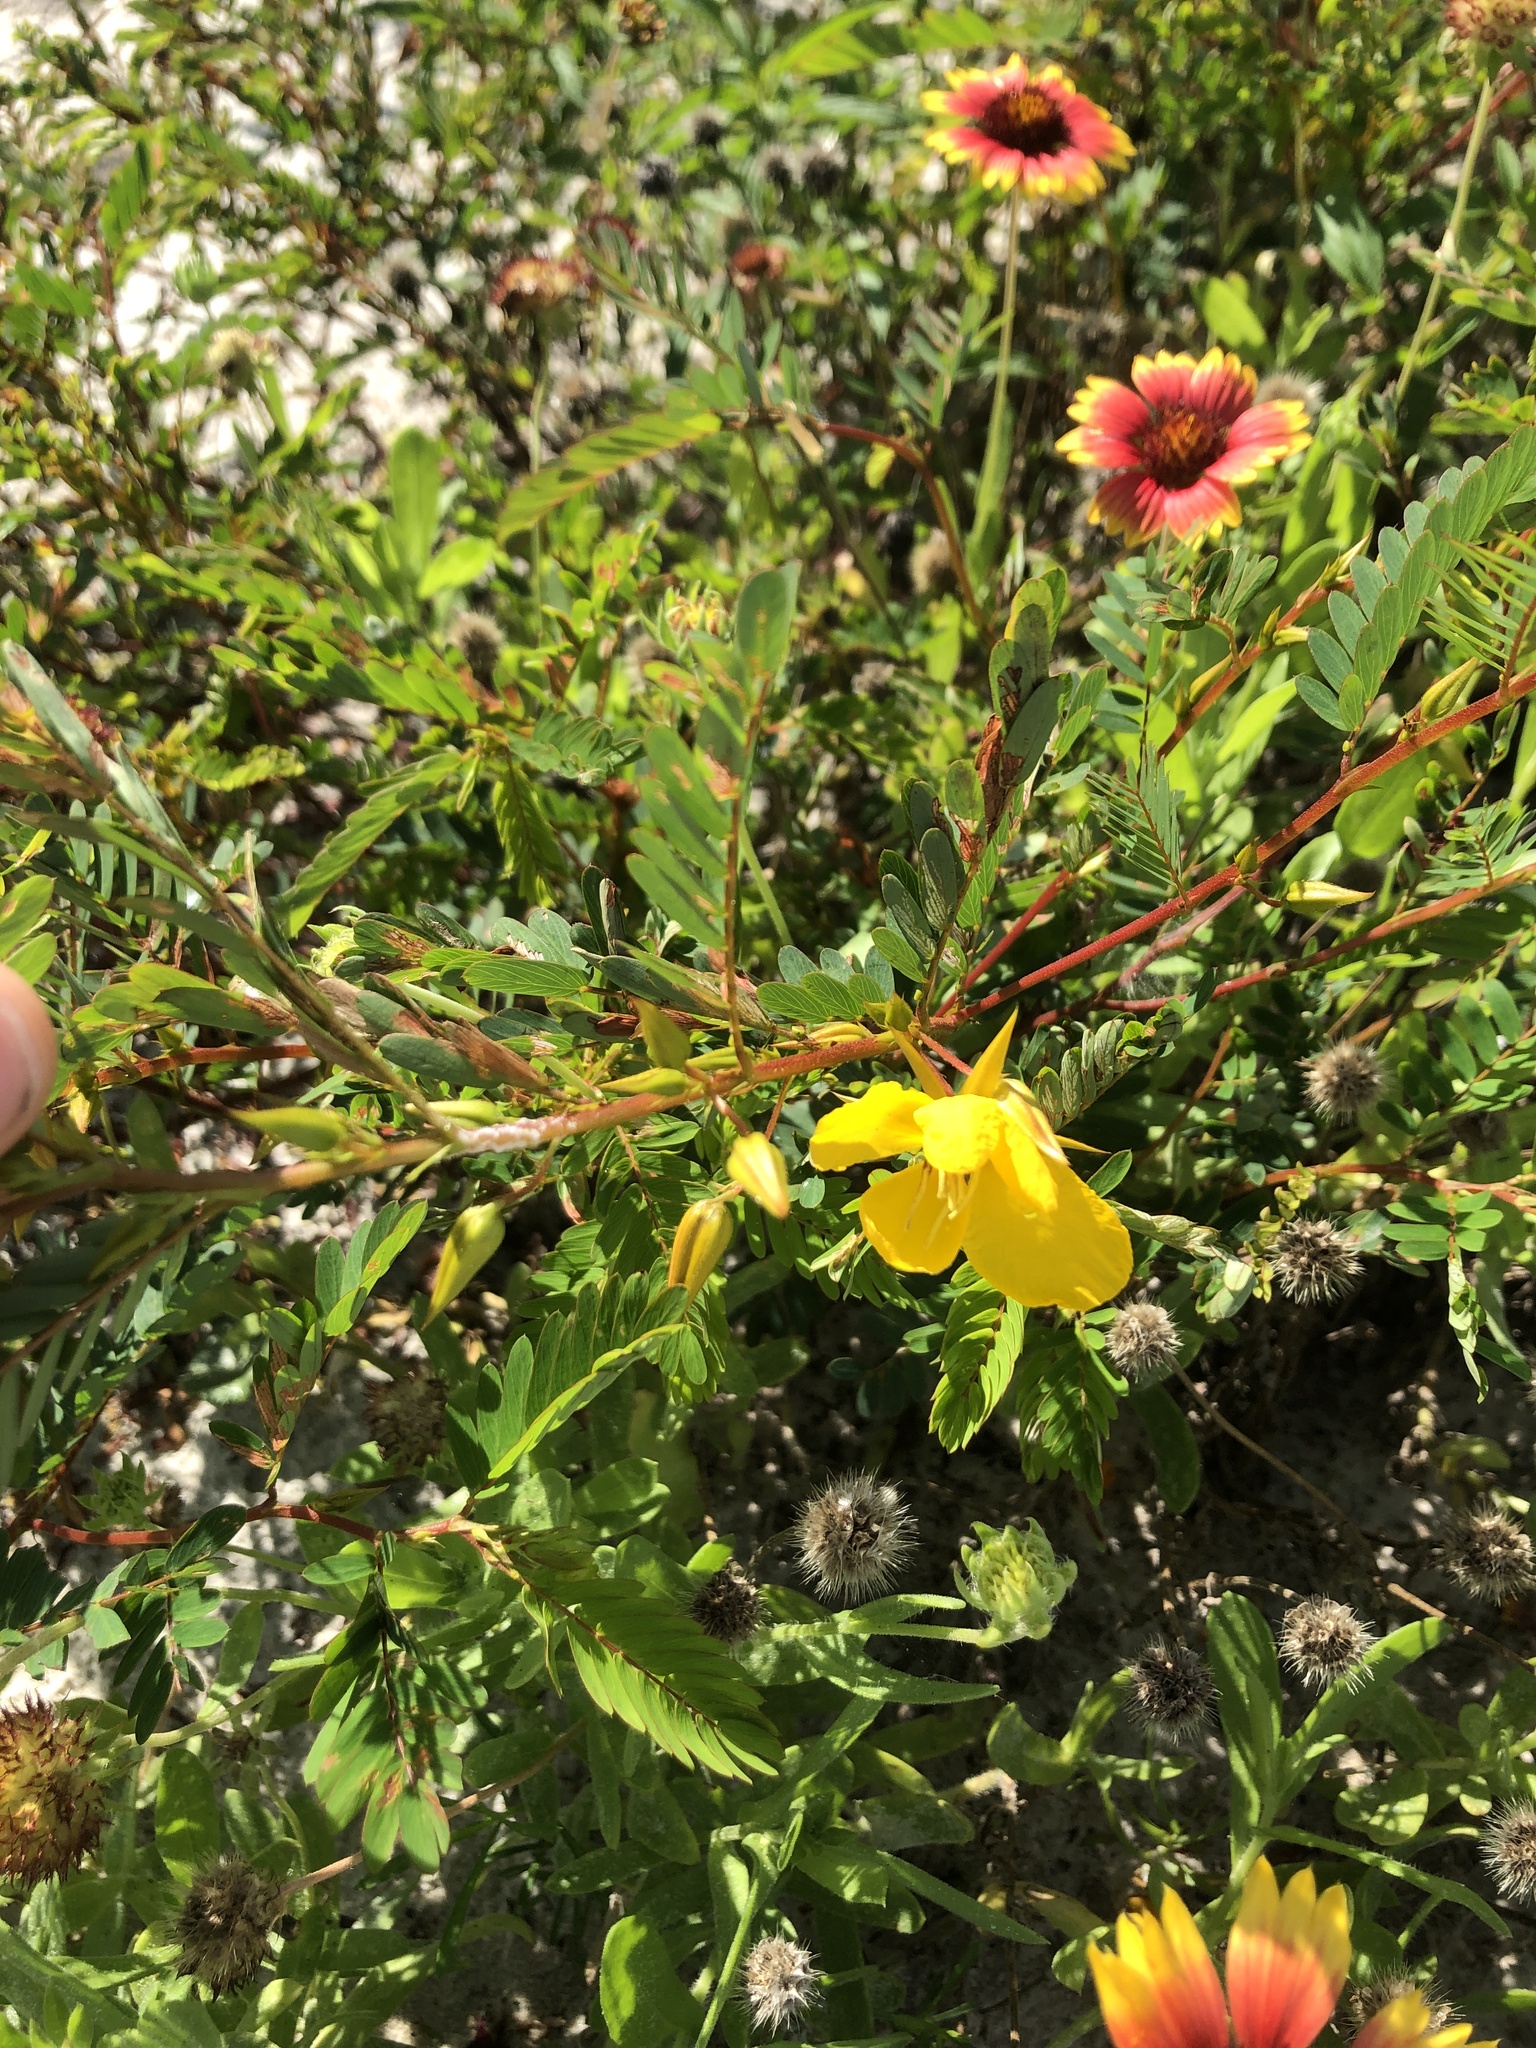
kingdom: Plantae
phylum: Tracheophyta
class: Magnoliopsida
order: Fabales
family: Fabaceae
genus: Chamaecrista
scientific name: Chamaecrista fasciculata
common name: Golden cassia
